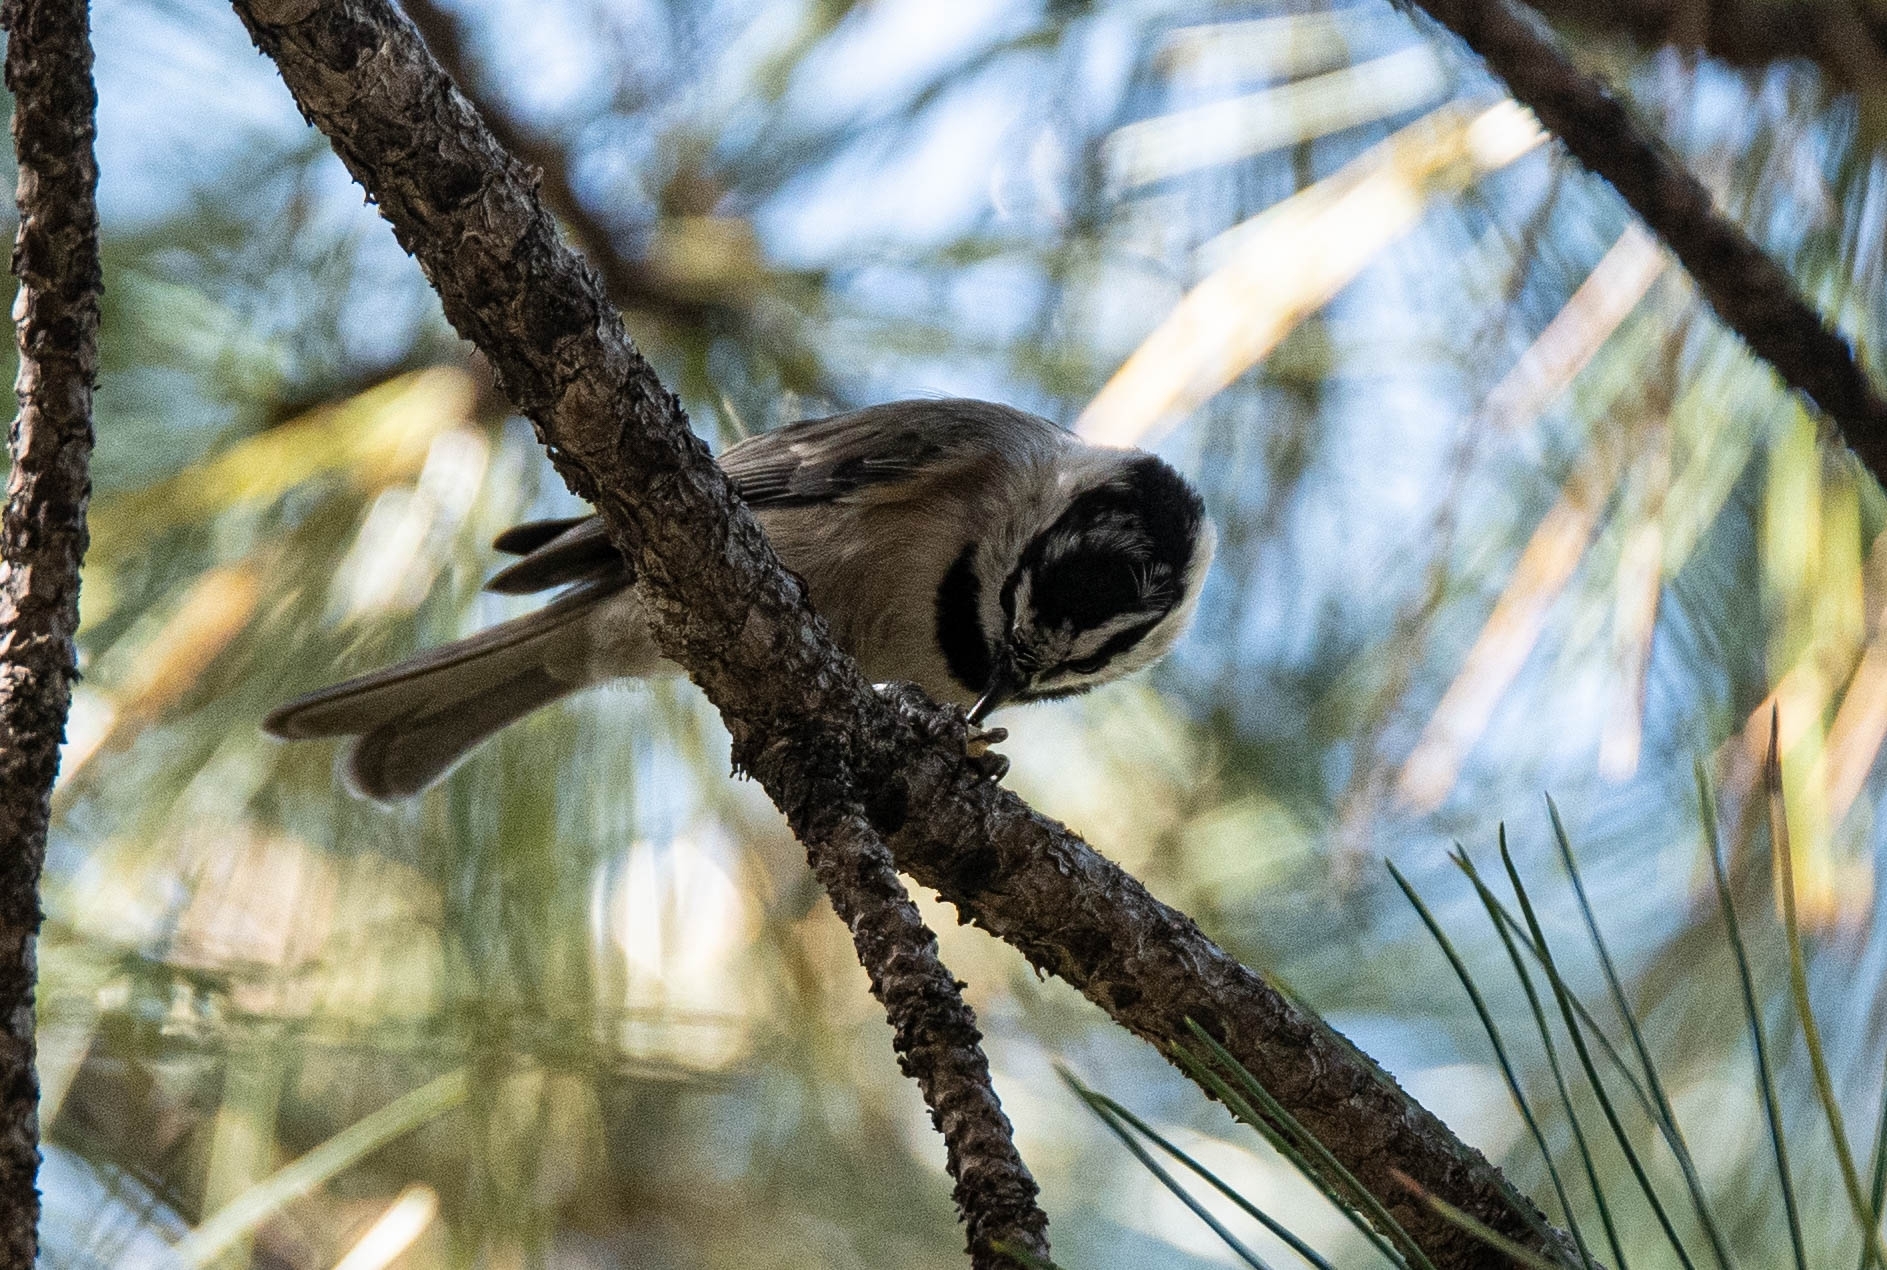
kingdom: Animalia
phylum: Chordata
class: Aves
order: Passeriformes
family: Paridae
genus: Poecile
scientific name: Poecile gambeli
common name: Mountain chickadee
